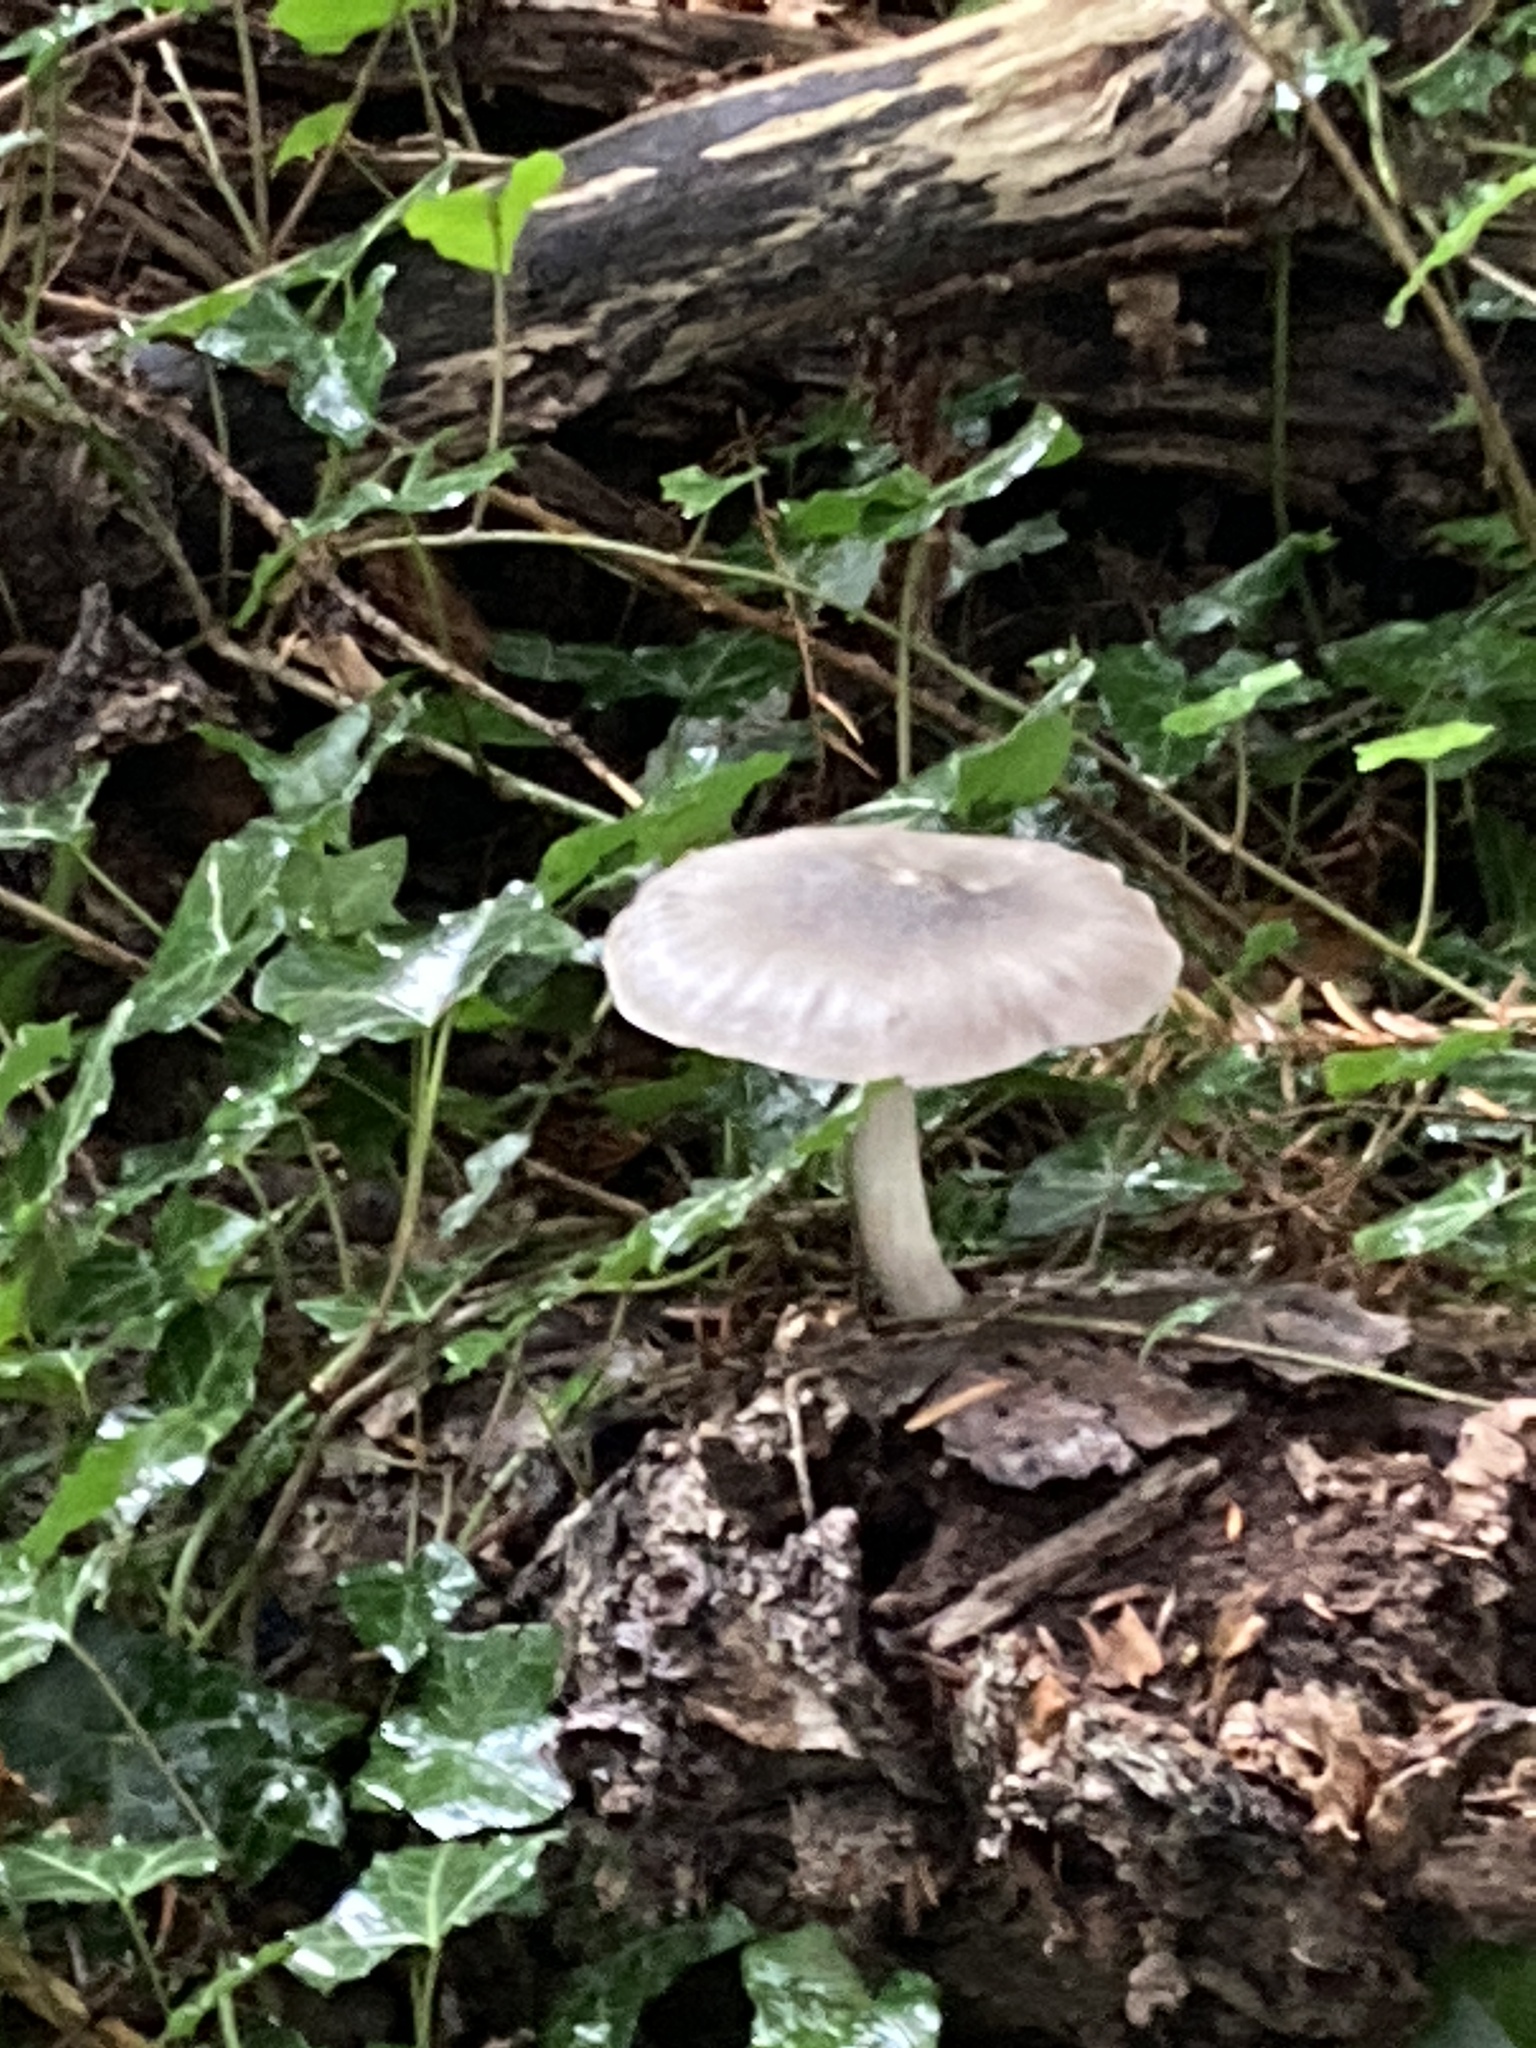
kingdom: Fungi
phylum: Basidiomycota
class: Agaricomycetes
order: Agaricales
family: Tricholomataceae
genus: Tricholoma
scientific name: Tricholoma terreum
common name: Grey knight
